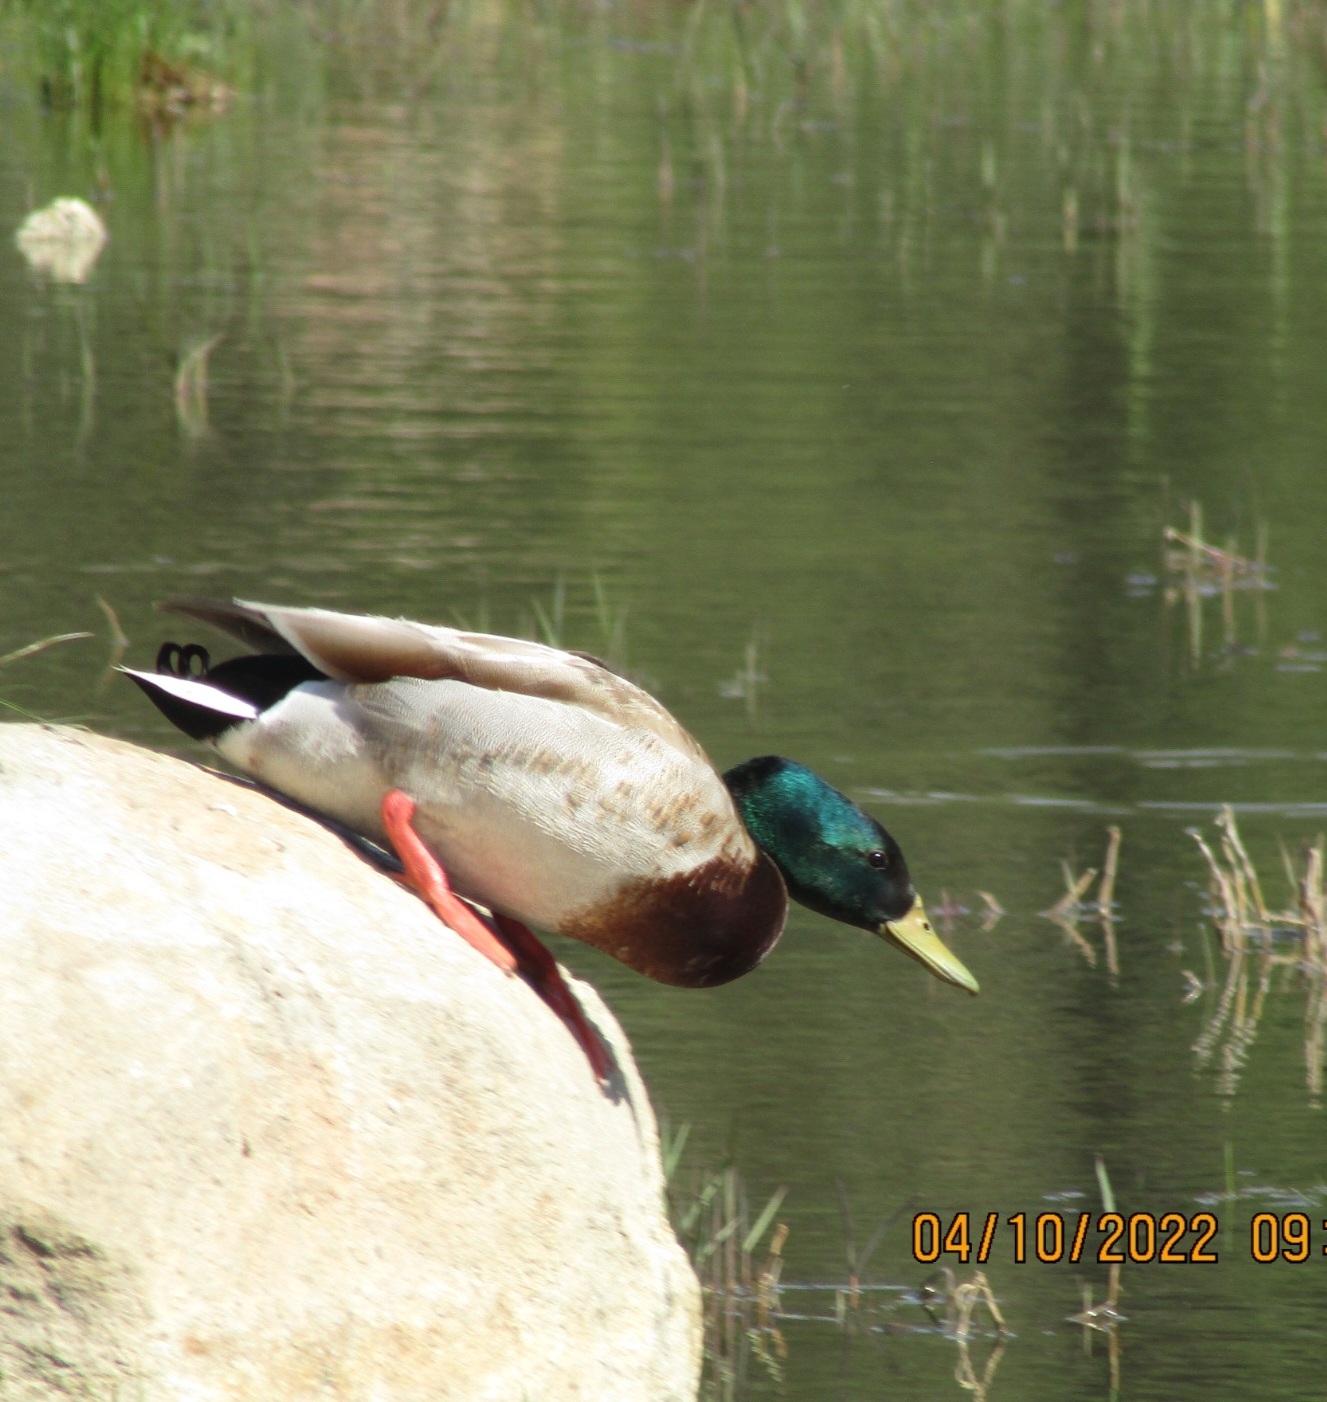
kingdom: Animalia
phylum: Chordata
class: Aves
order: Anseriformes
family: Anatidae
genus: Anas
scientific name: Anas platyrhynchos
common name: Mallard
